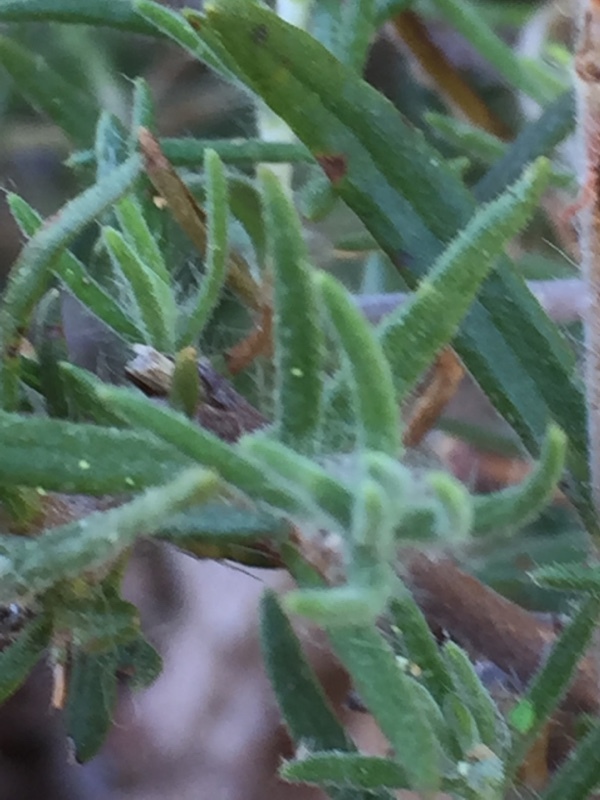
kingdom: Plantae
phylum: Tracheophyta
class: Magnoliopsida
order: Malvales
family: Cistaceae
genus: Halimium
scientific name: Halimium umbellatum
